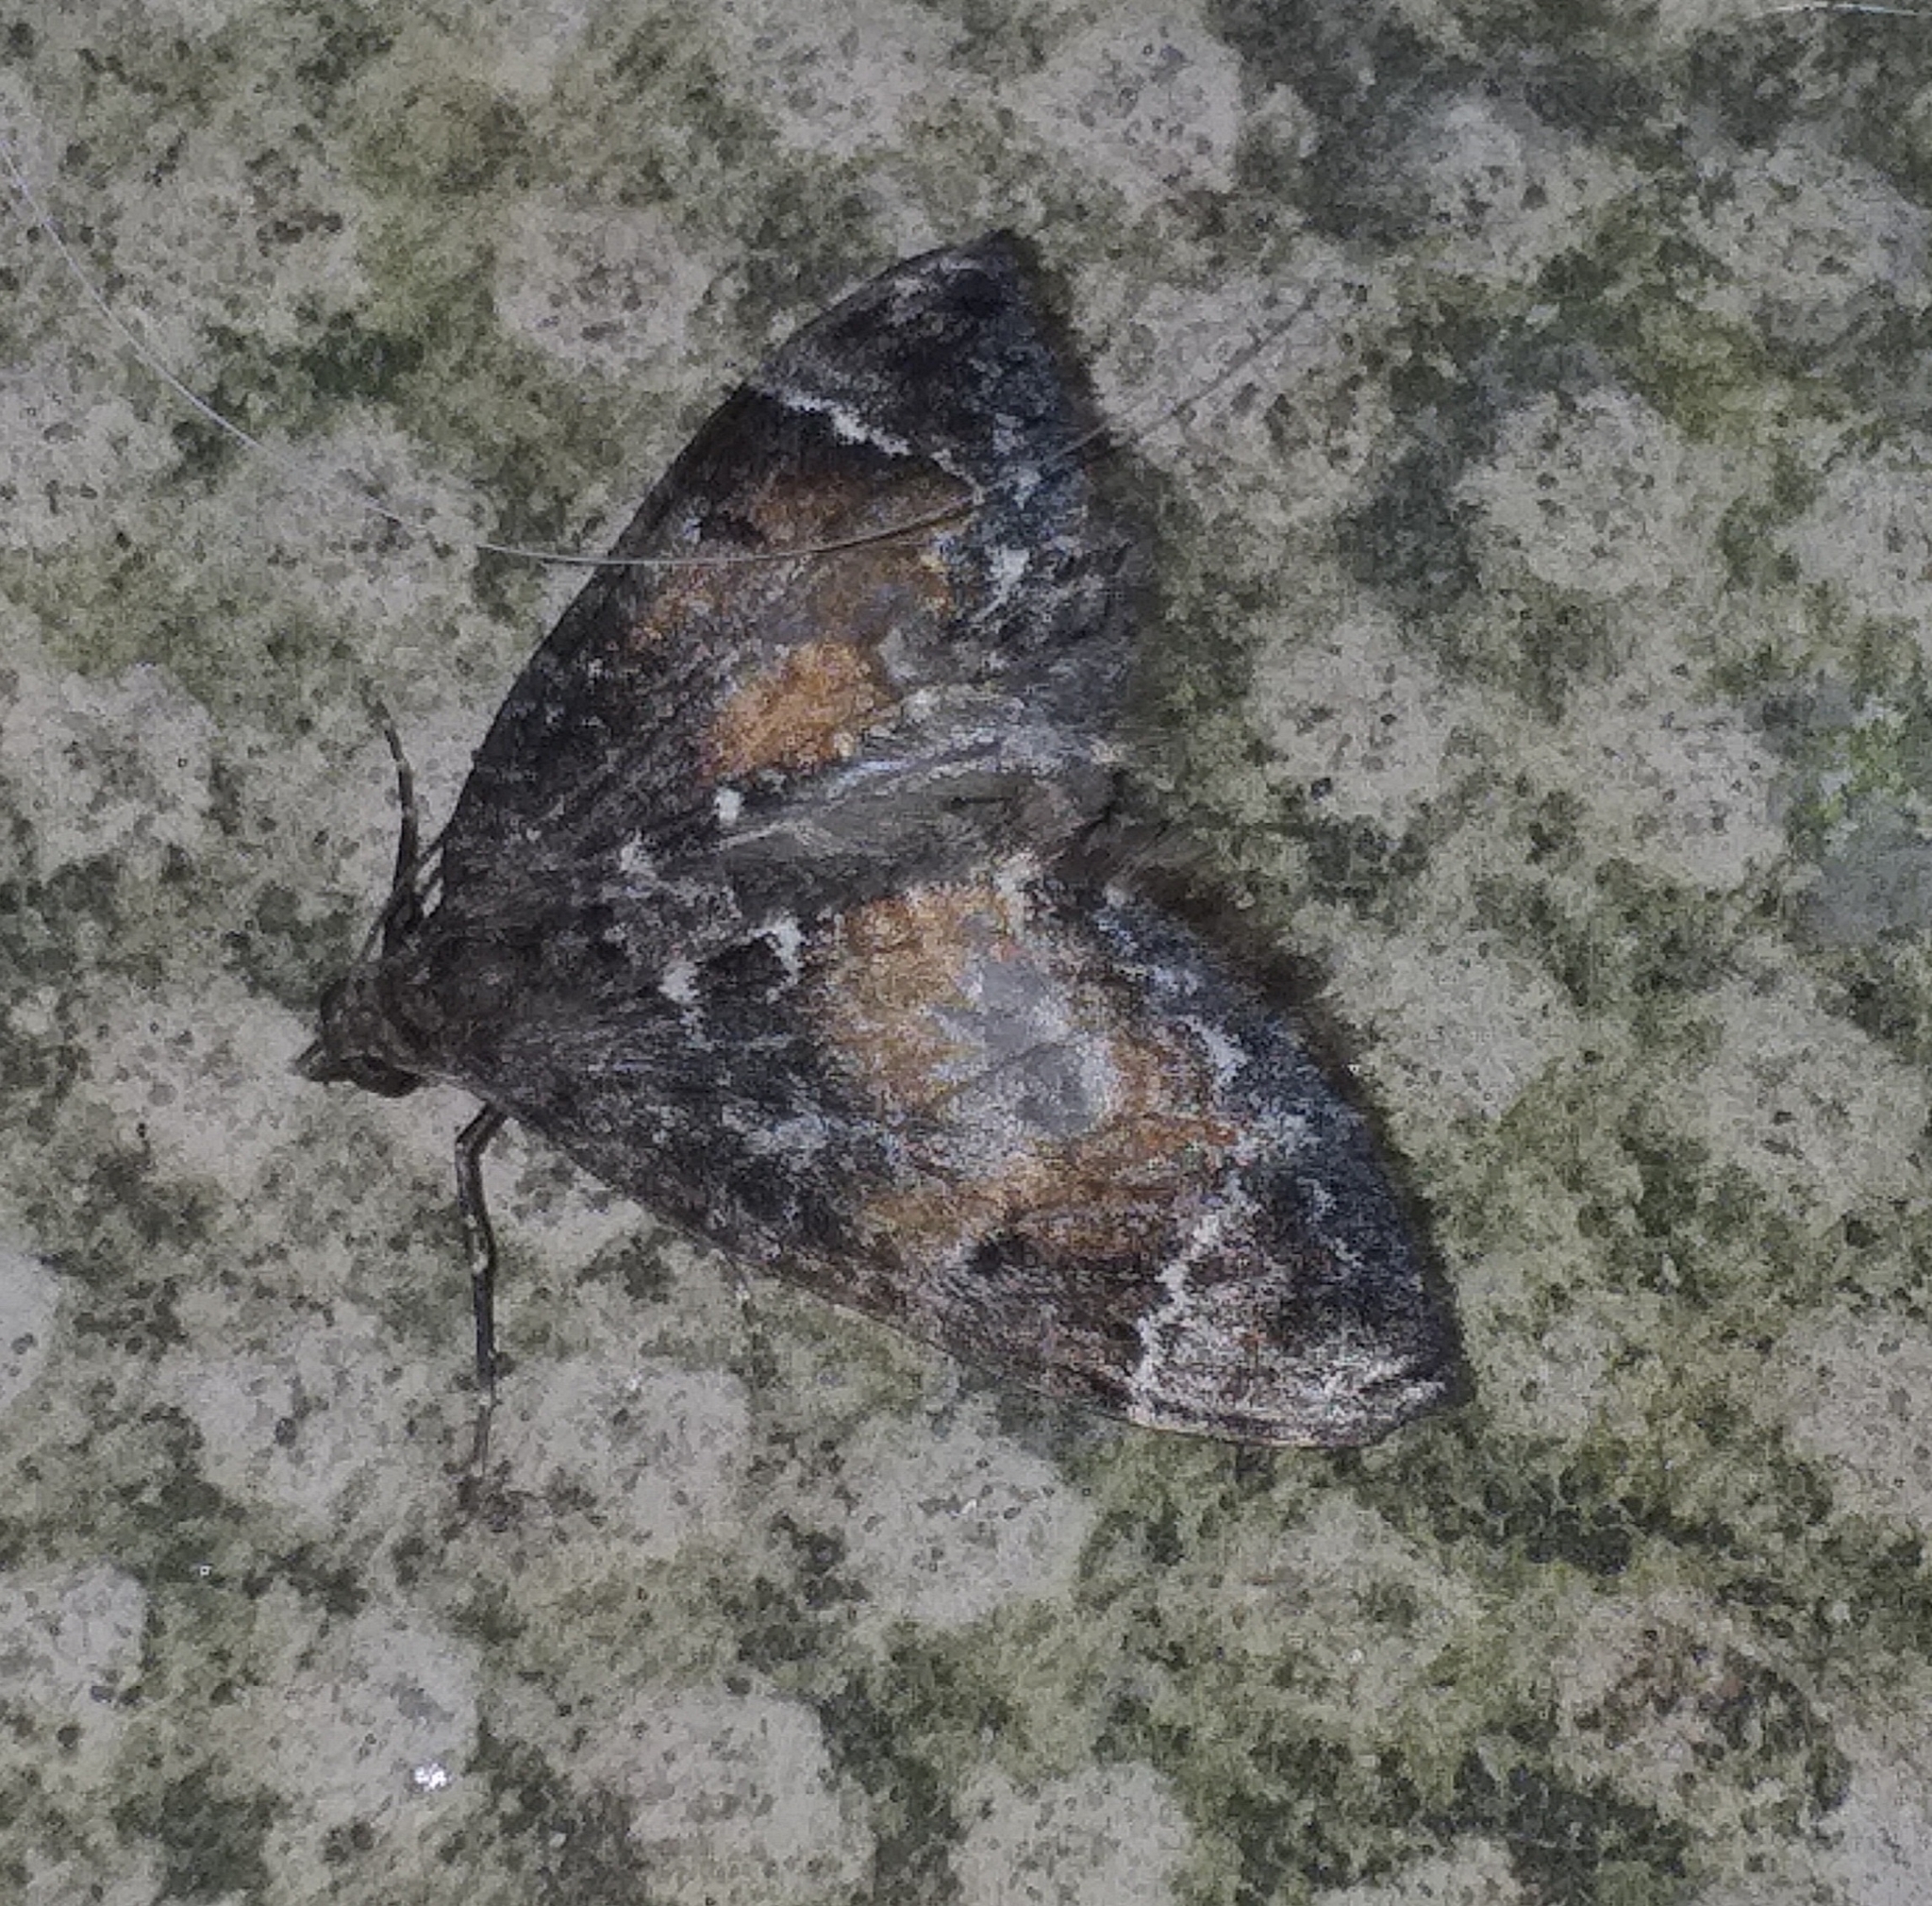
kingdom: Animalia
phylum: Arthropoda
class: Insecta
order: Lepidoptera
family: Geometridae
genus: Dysstroma
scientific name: Dysstroma truncata
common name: Common marbled carpet
